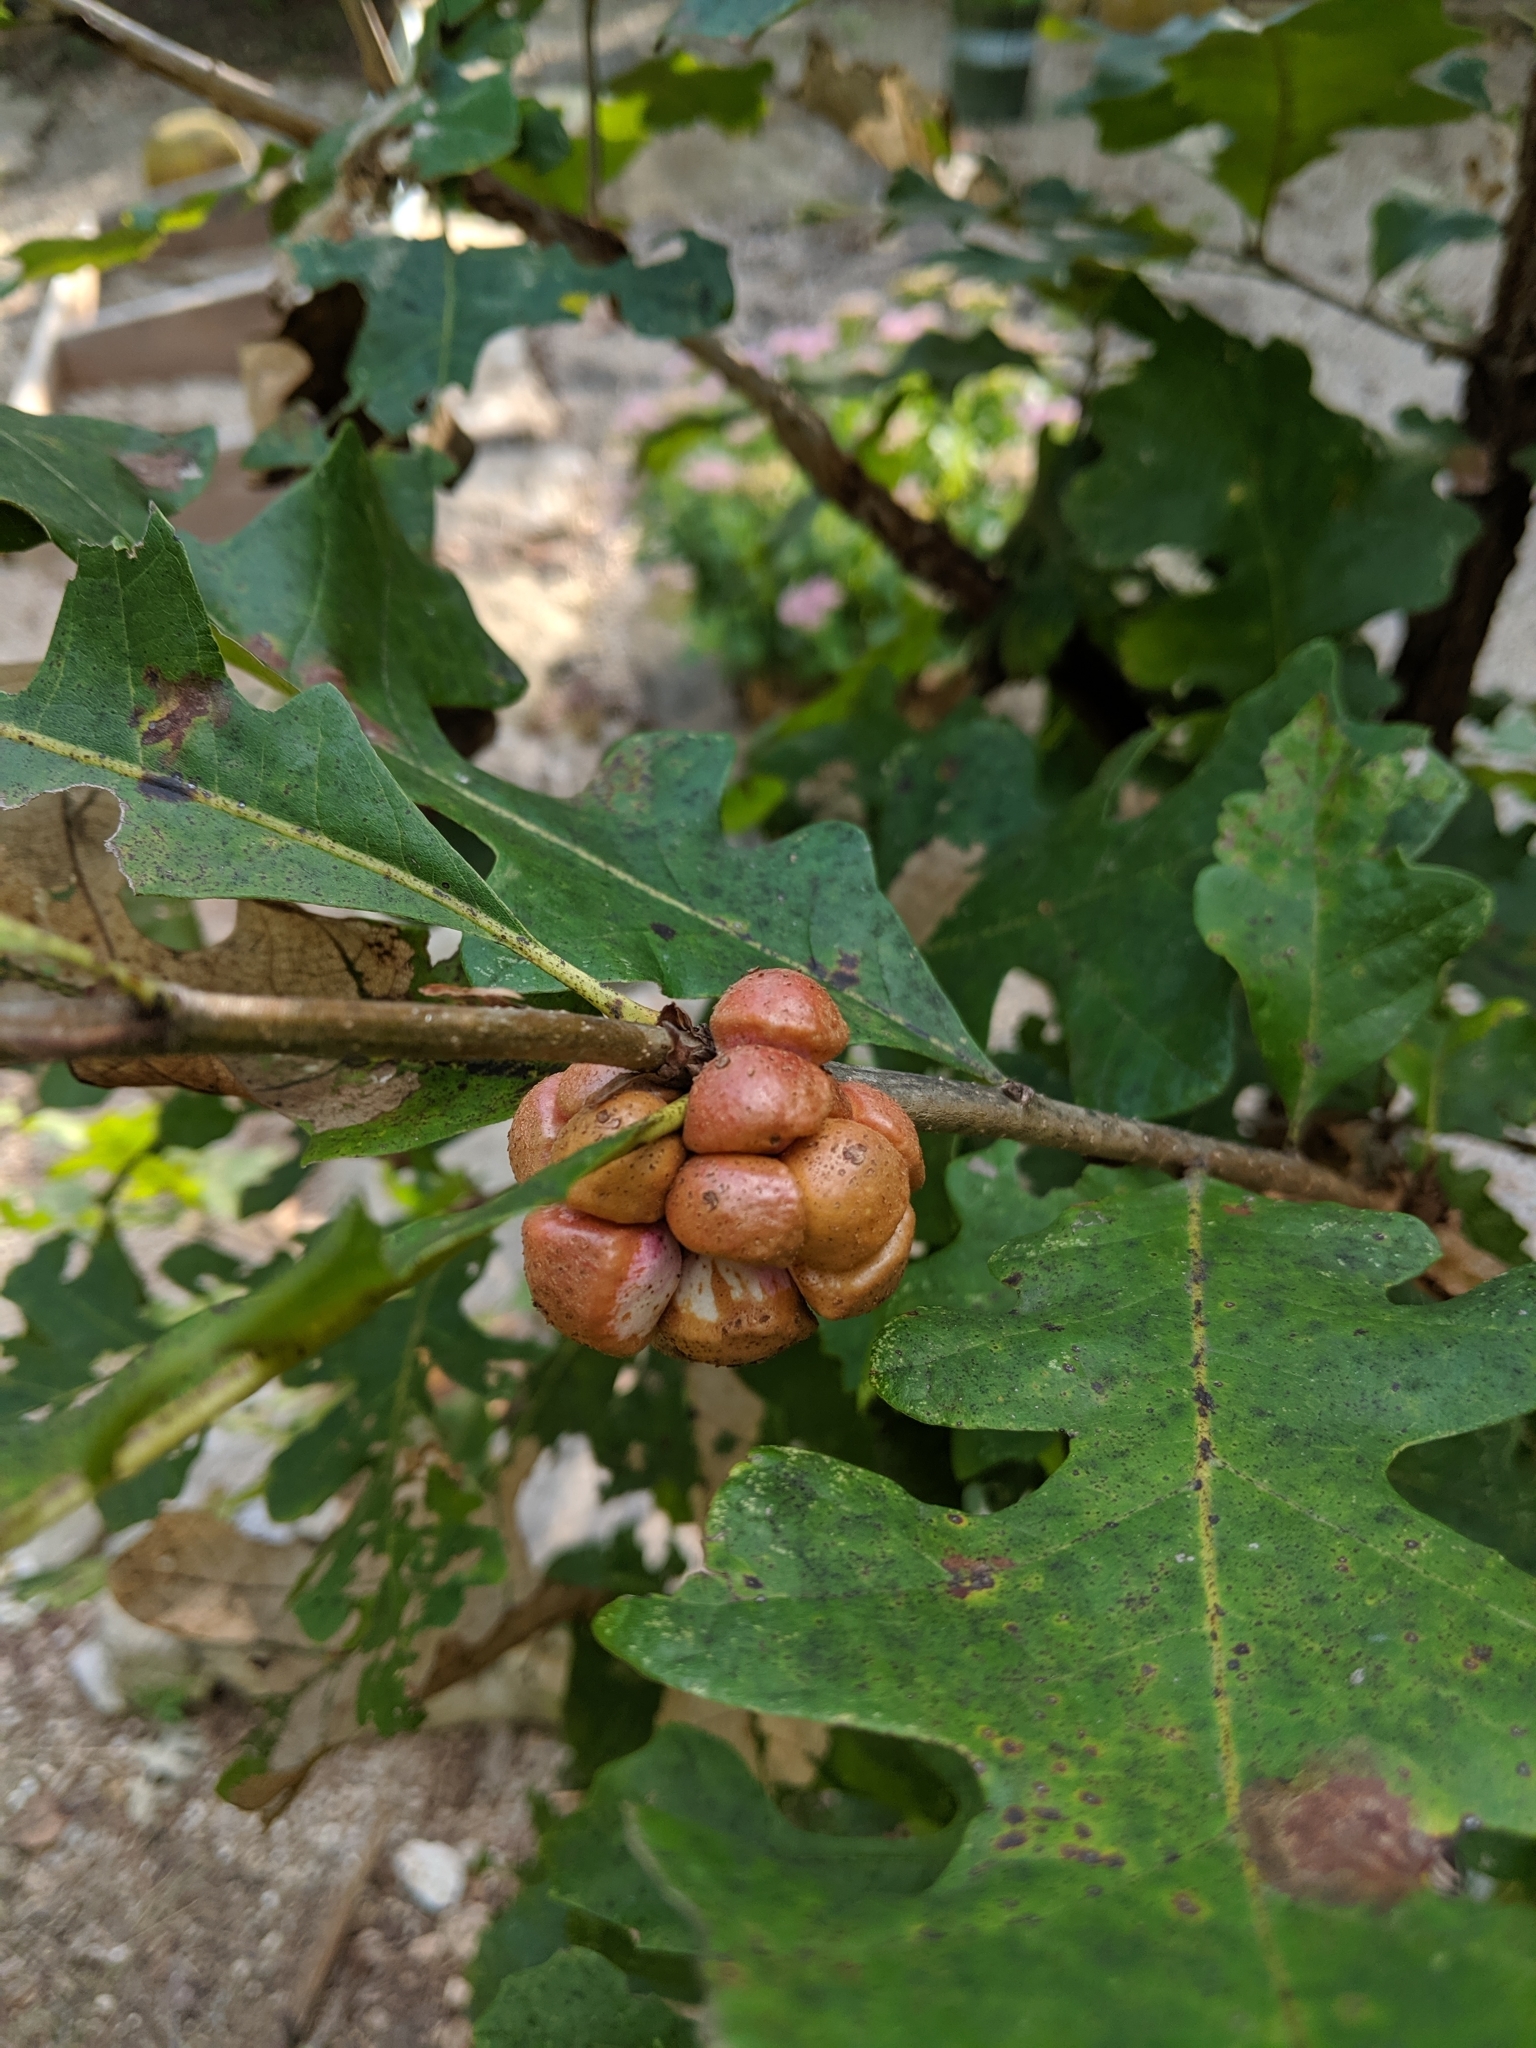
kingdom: Animalia
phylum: Arthropoda
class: Insecta
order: Hymenoptera
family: Cynipidae
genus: Andricus
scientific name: Andricus
